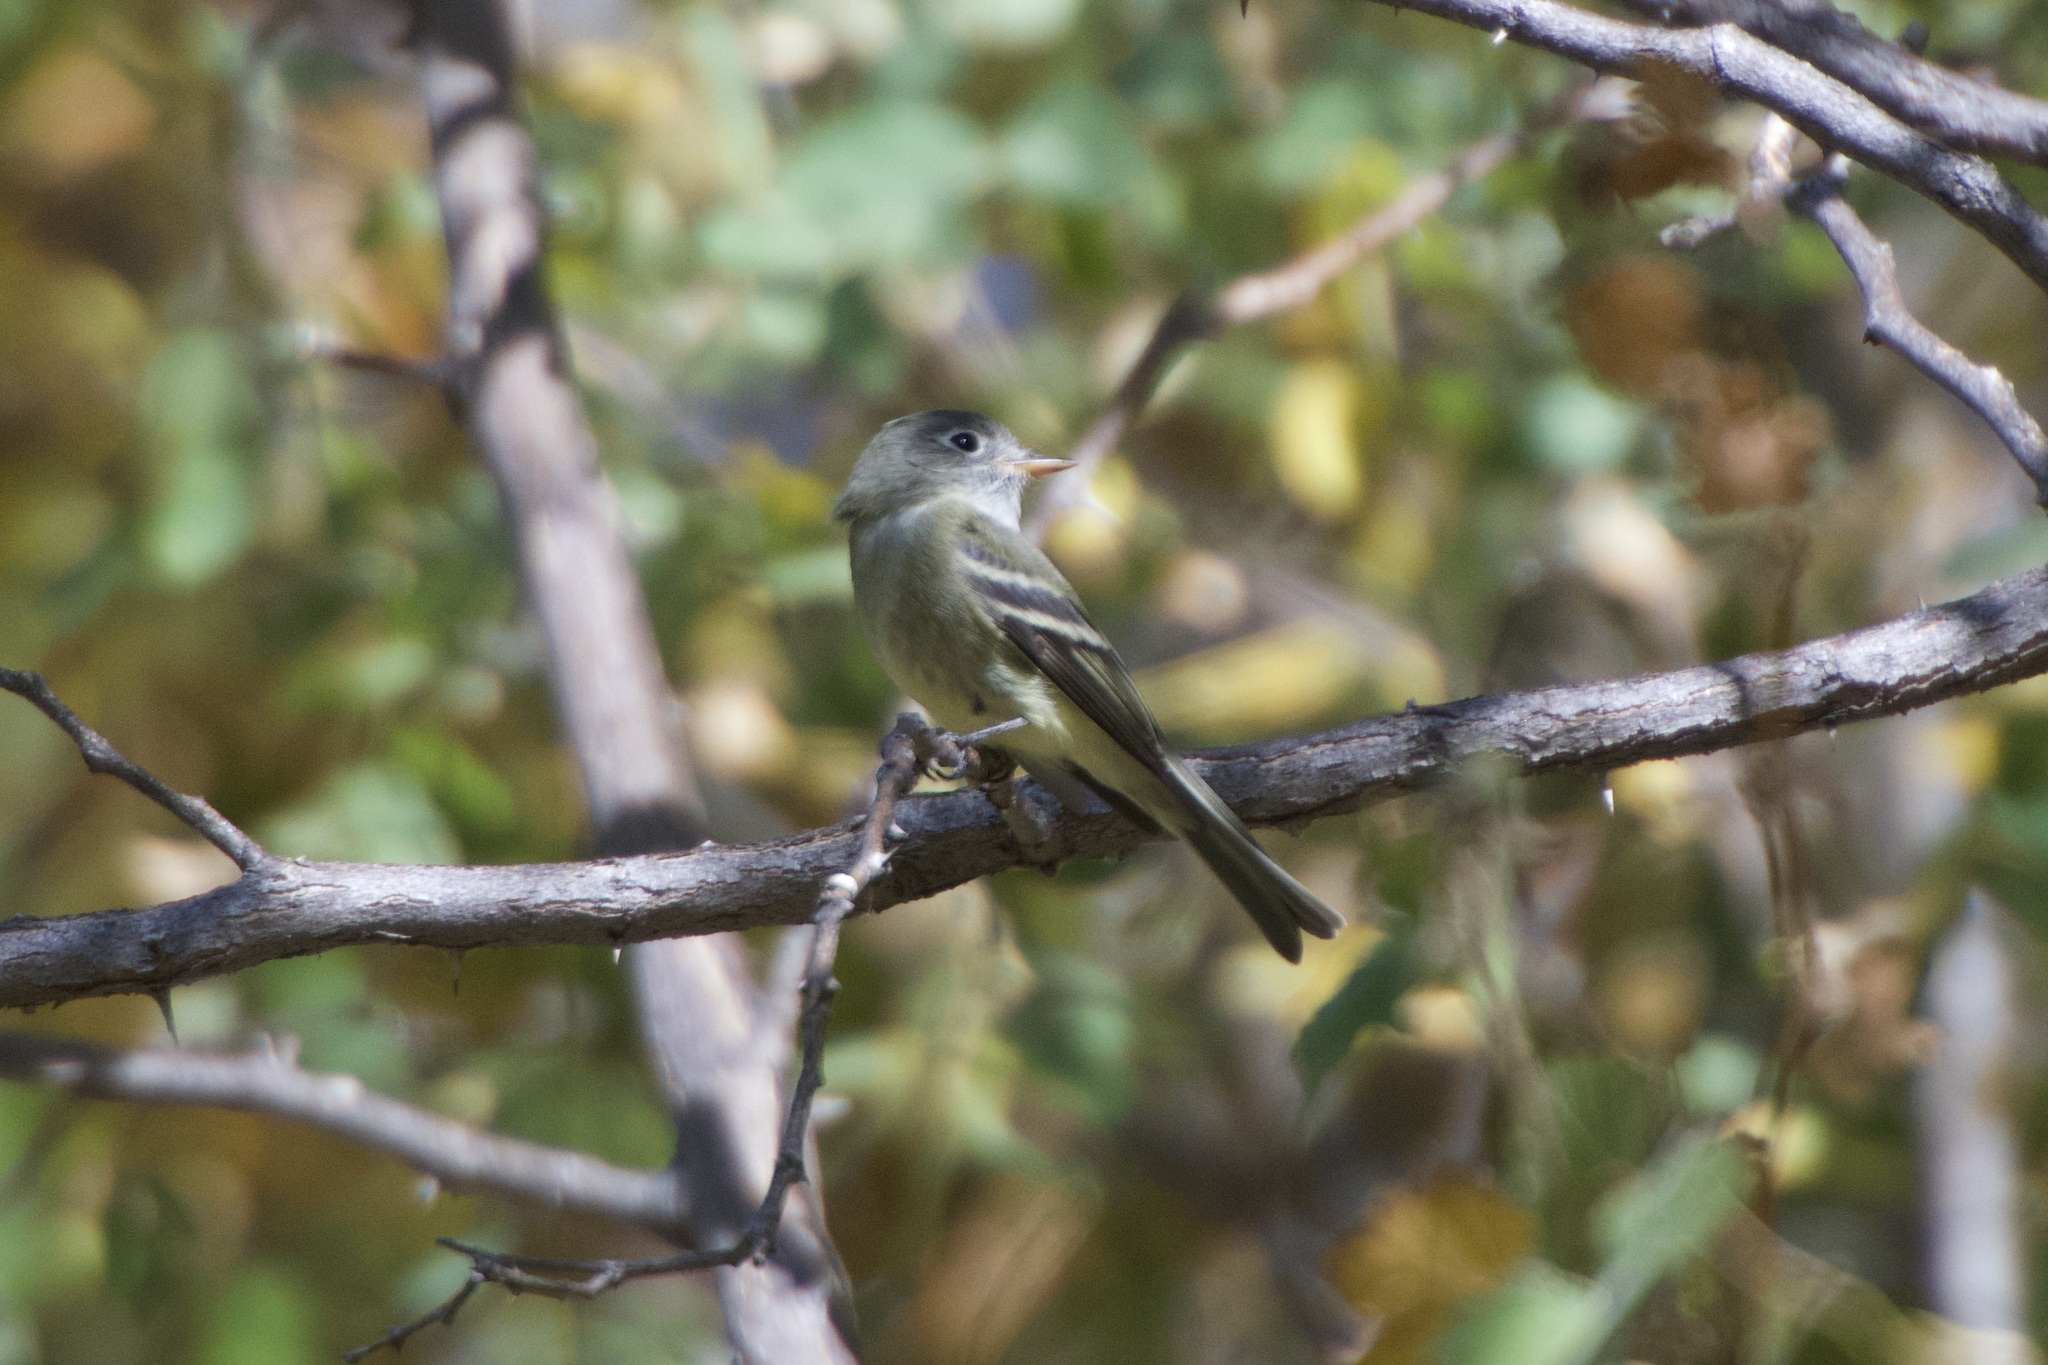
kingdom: Animalia
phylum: Chordata
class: Aves
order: Passeriformes
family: Tyrannidae
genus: Empidonax
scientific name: Empidonax hammondii
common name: Hammond's flycatcher
